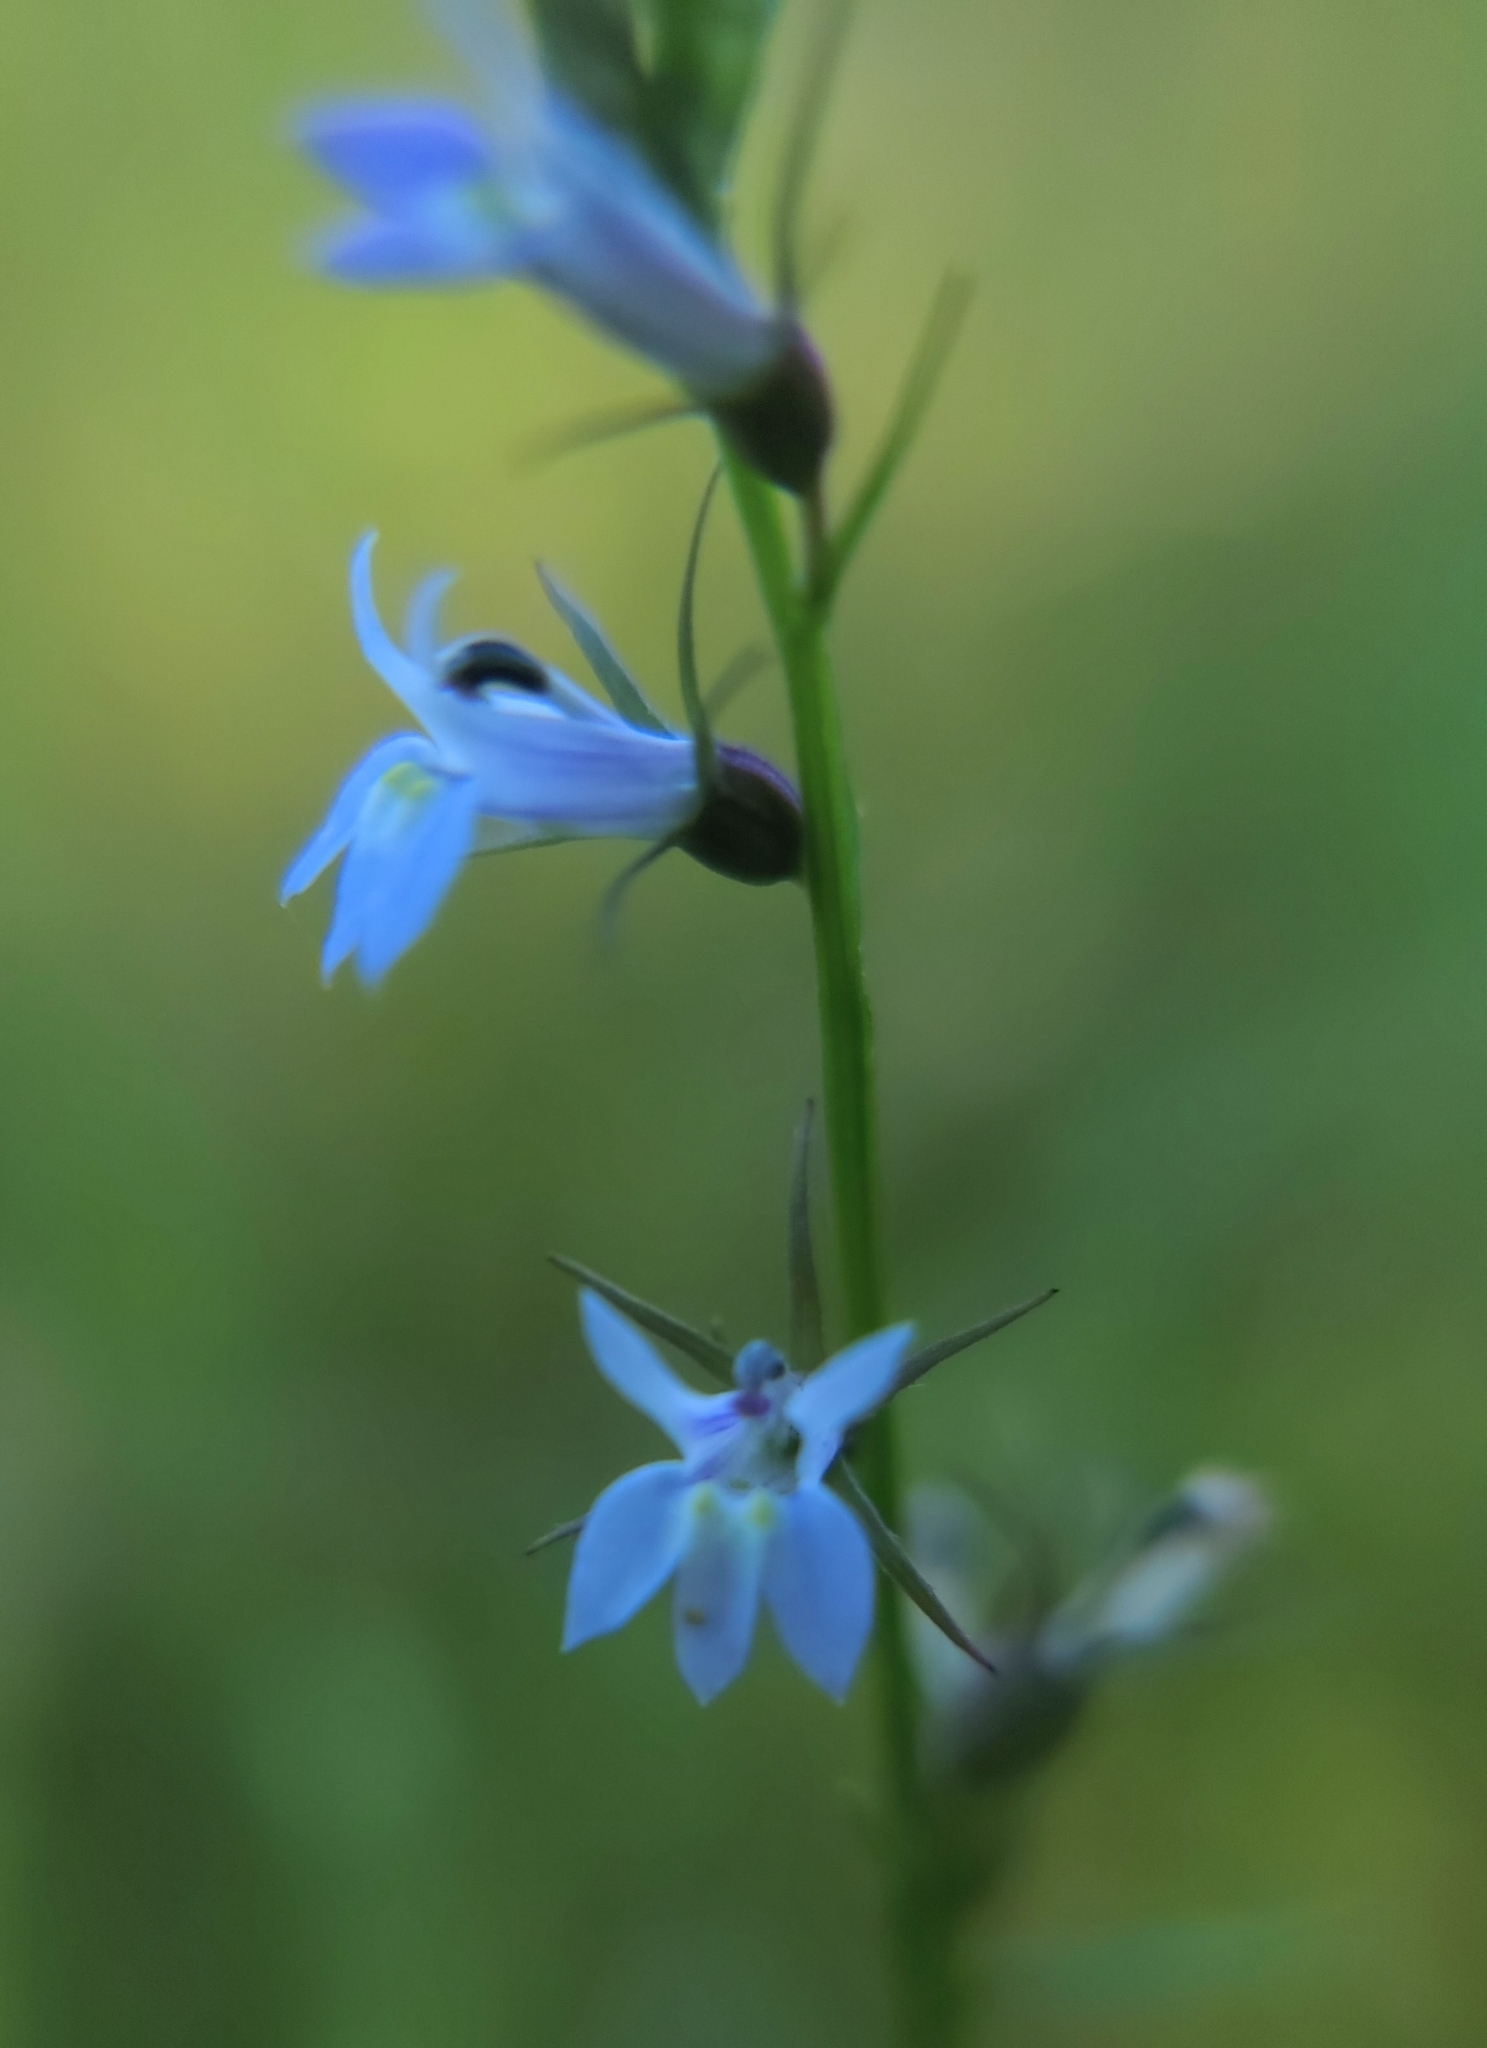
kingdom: Plantae
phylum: Tracheophyta
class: Magnoliopsida
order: Asterales
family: Campanulaceae
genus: Lobelia
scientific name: Lobelia inflata
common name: Indian tobacco
